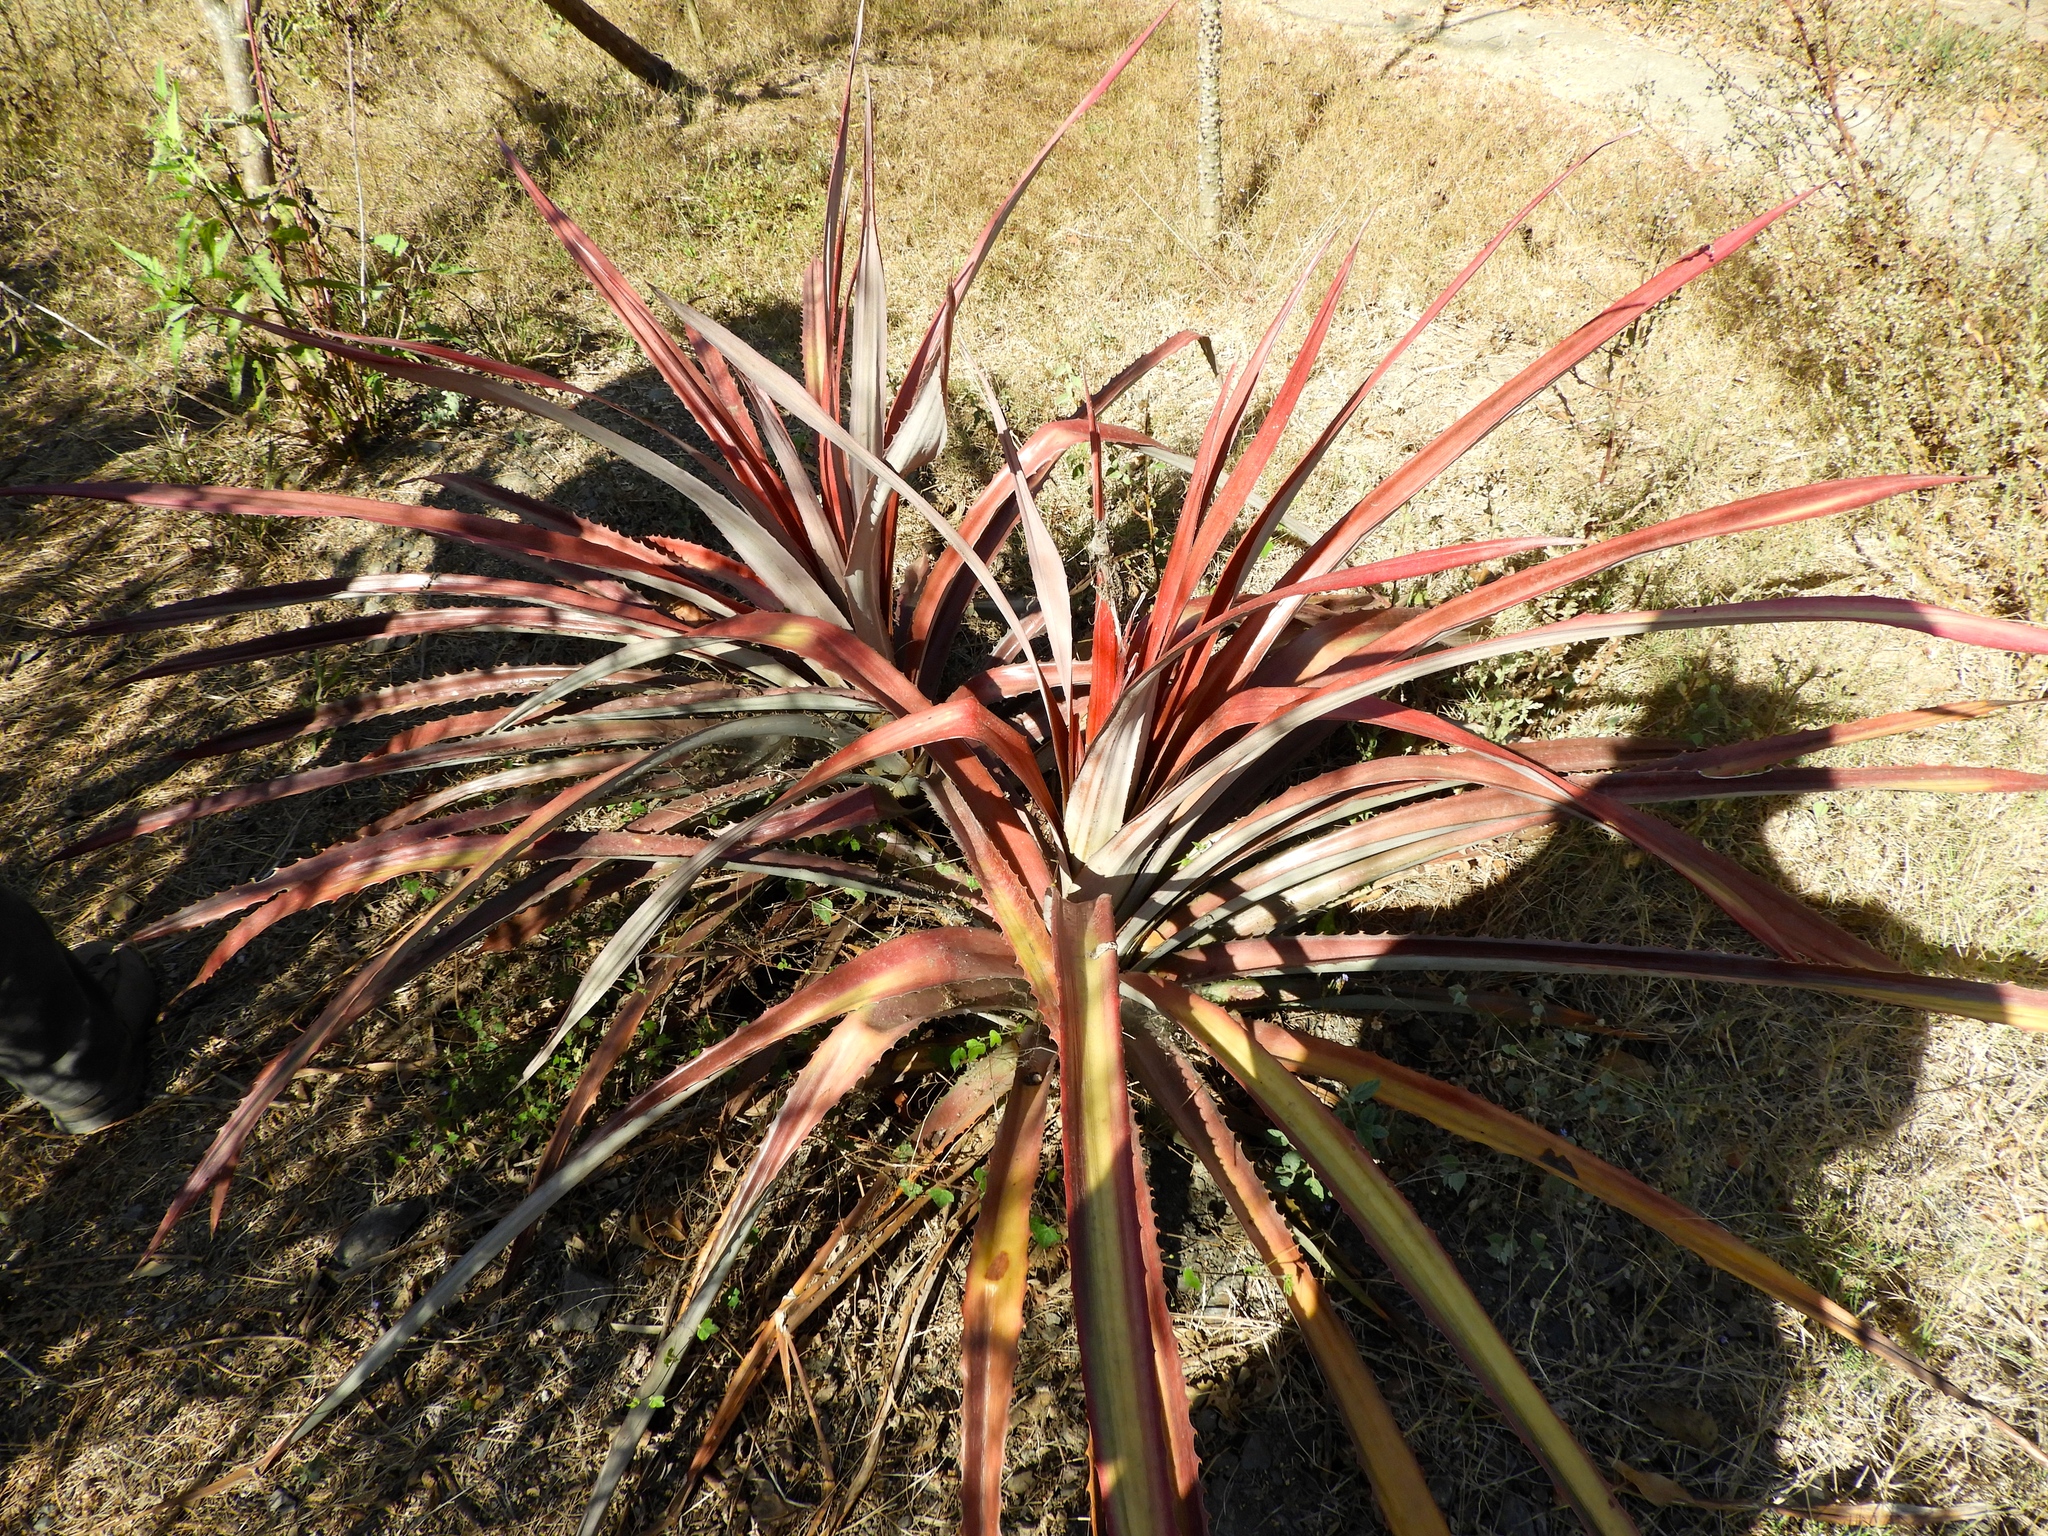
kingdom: Plantae
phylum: Tracheophyta
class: Liliopsida
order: Poales
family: Bromeliaceae
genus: Bromelia
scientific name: Bromelia karatas
